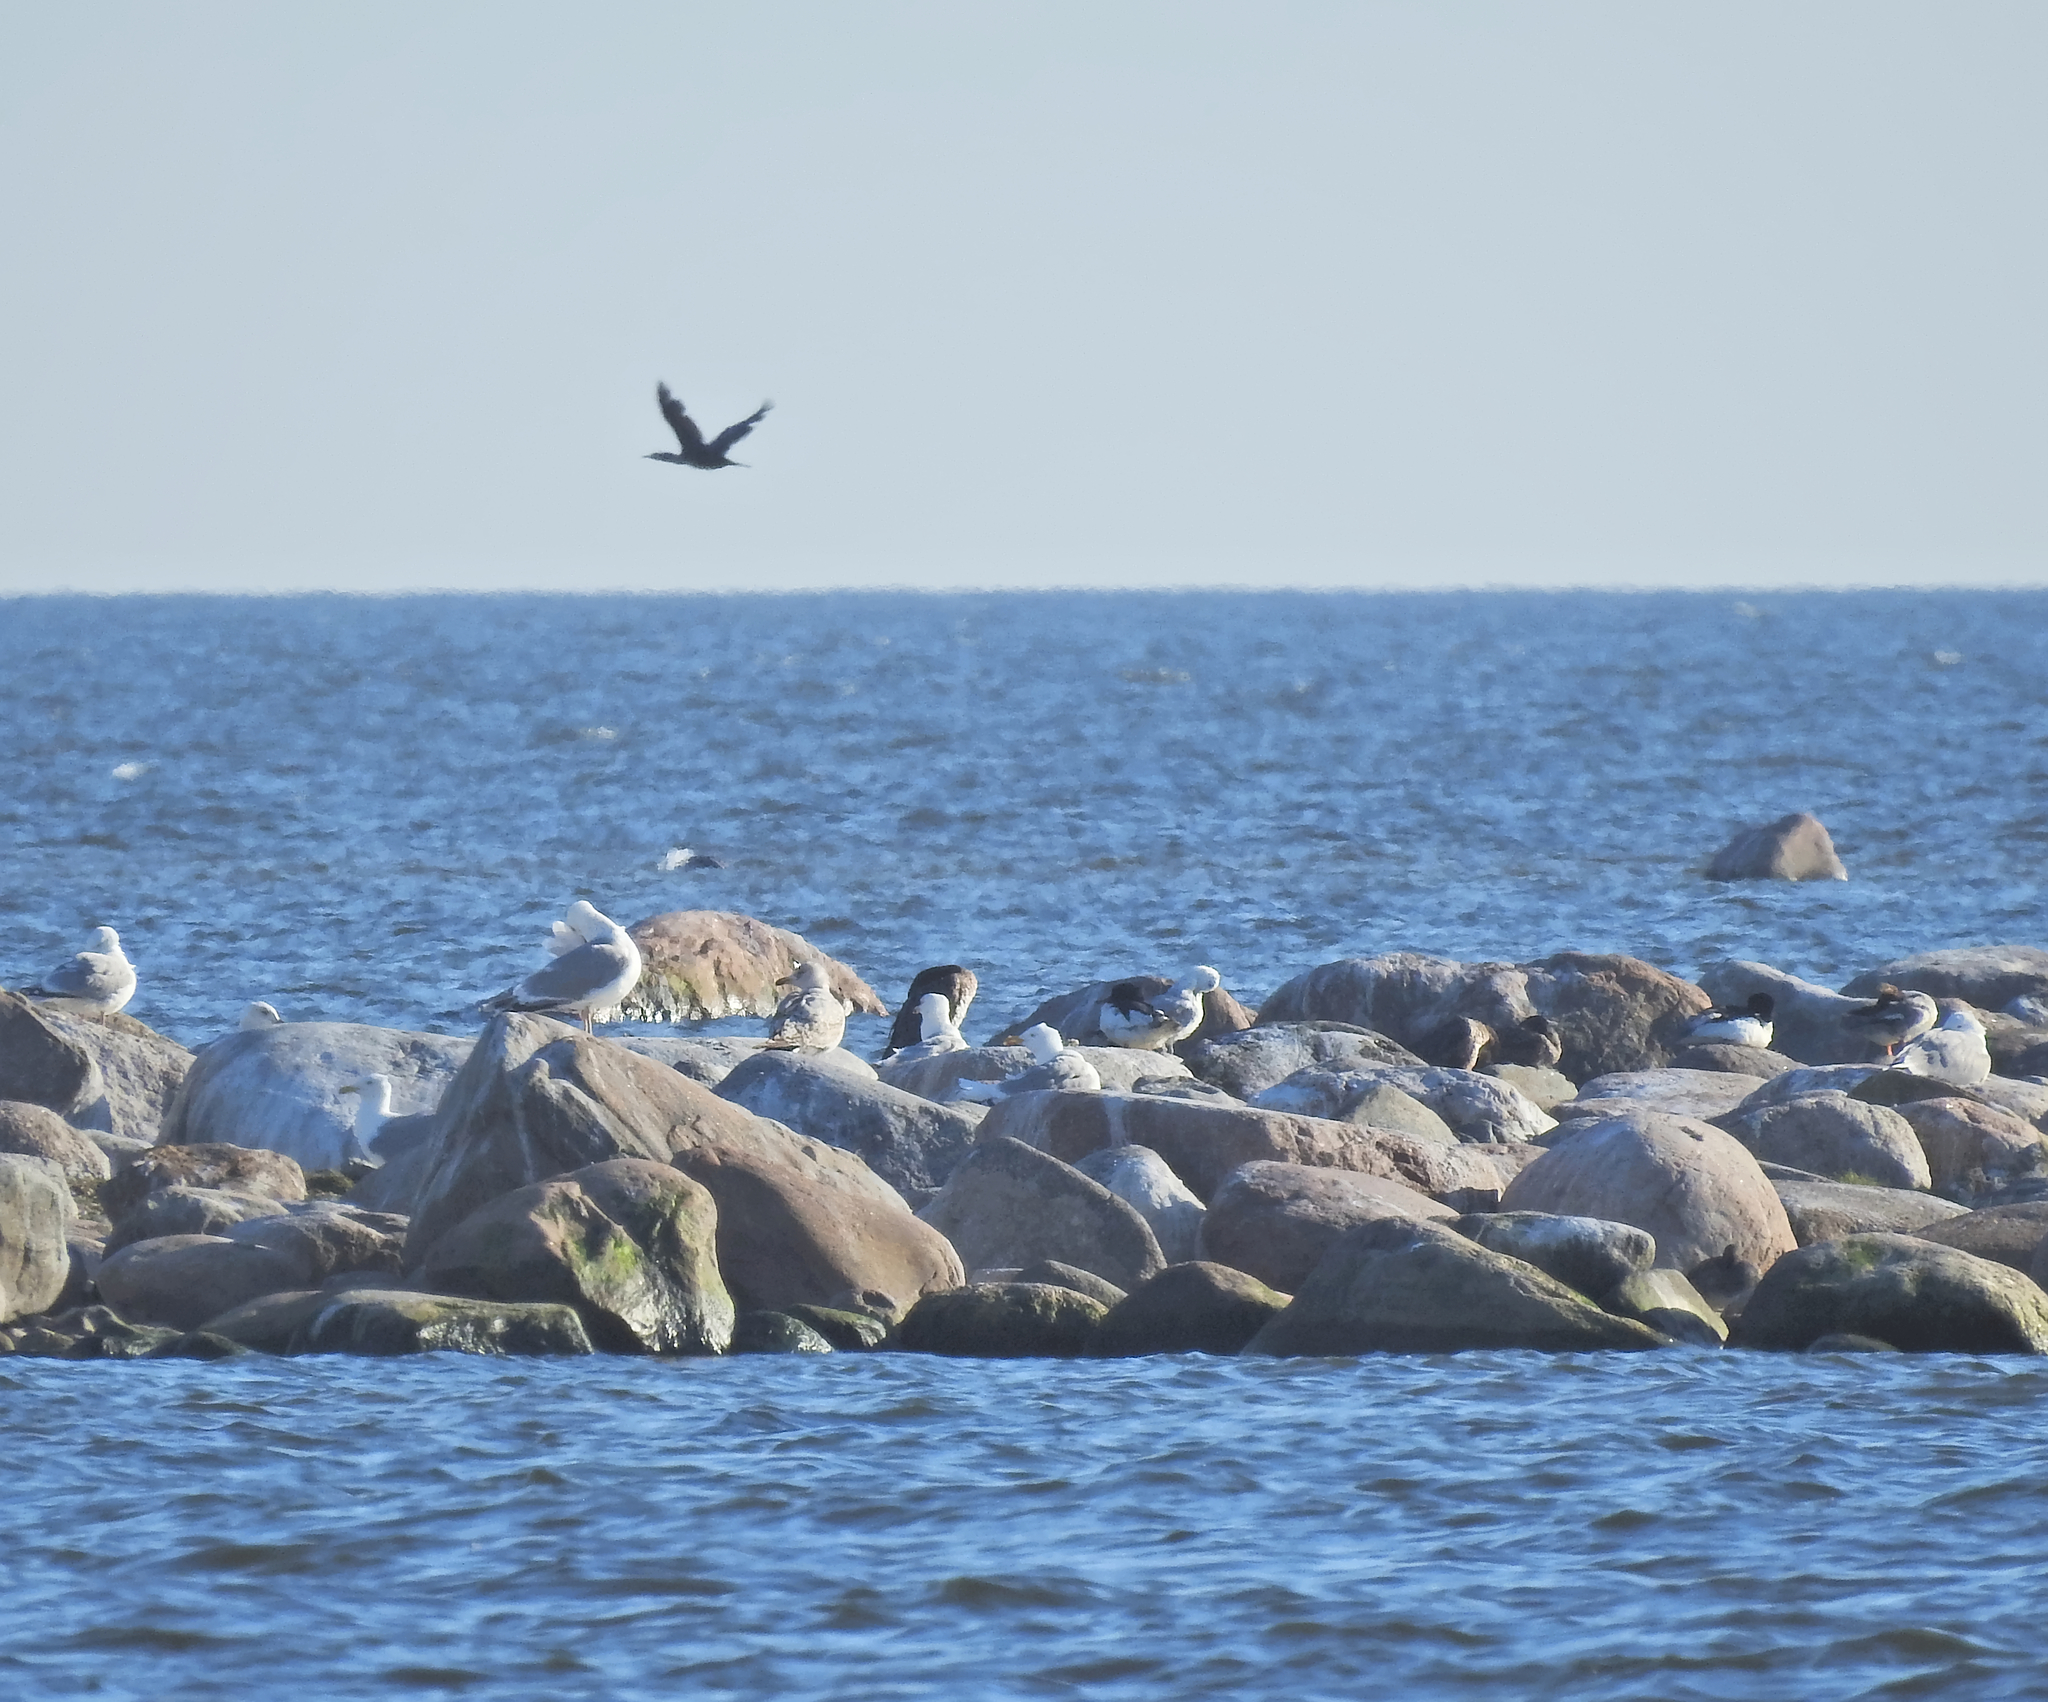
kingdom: Animalia
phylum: Chordata
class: Aves
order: Charadriiformes
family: Laridae
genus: Larus
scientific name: Larus argentatus
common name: Herring gull
